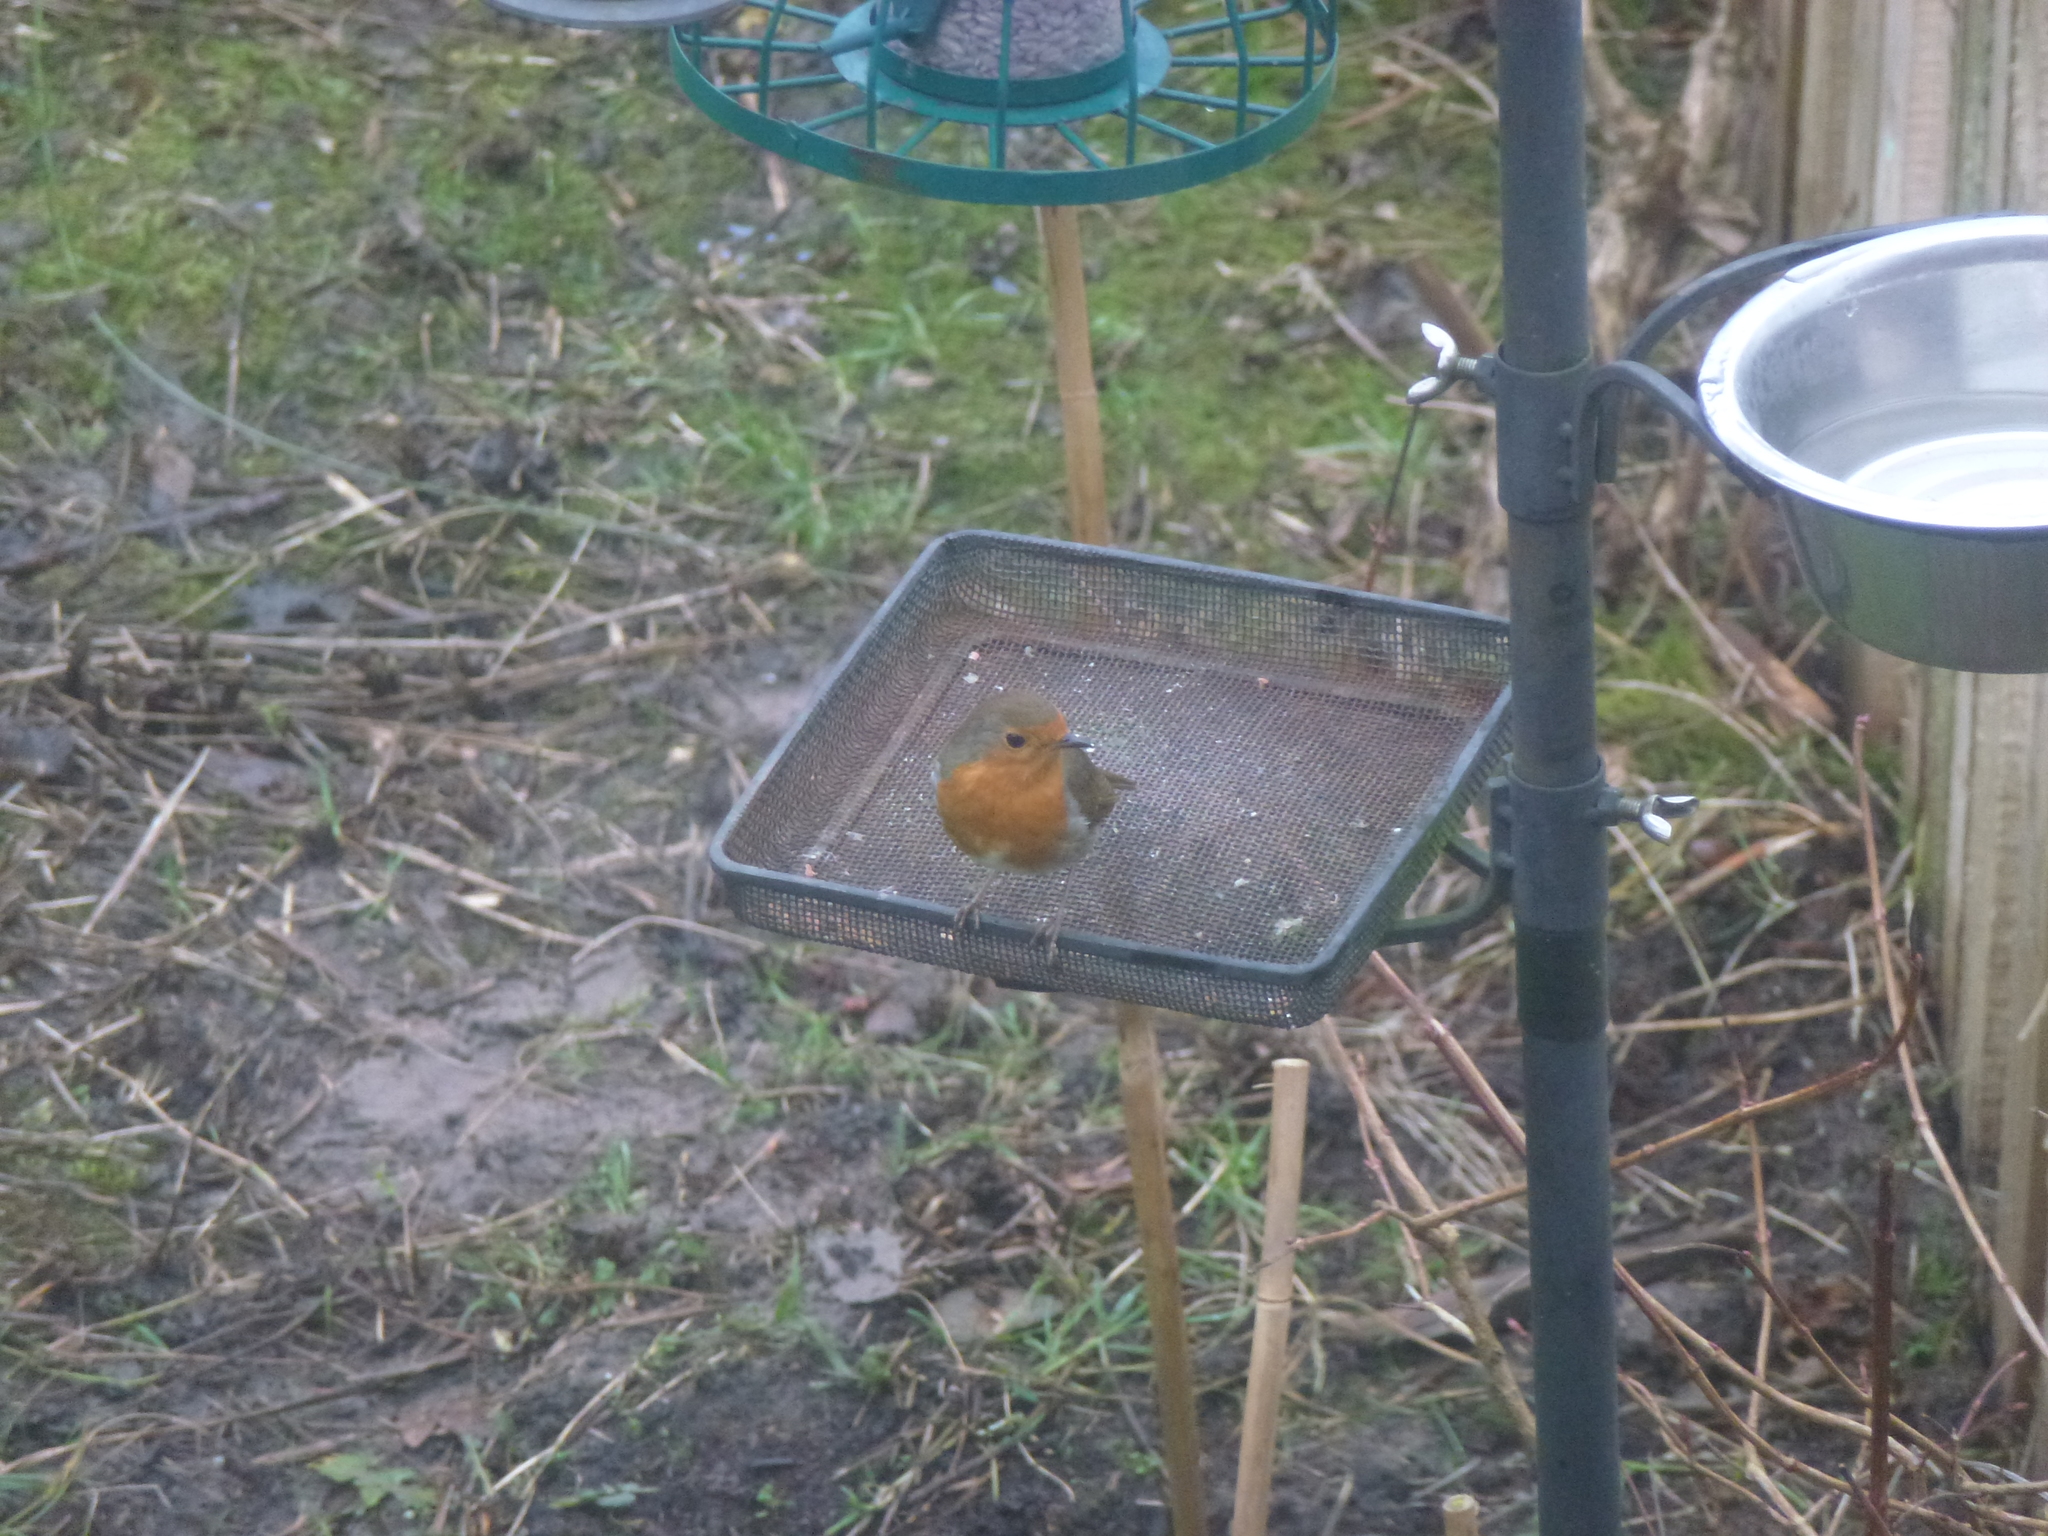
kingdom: Animalia
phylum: Chordata
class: Aves
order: Passeriformes
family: Muscicapidae
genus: Erithacus
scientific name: Erithacus rubecula
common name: European robin
